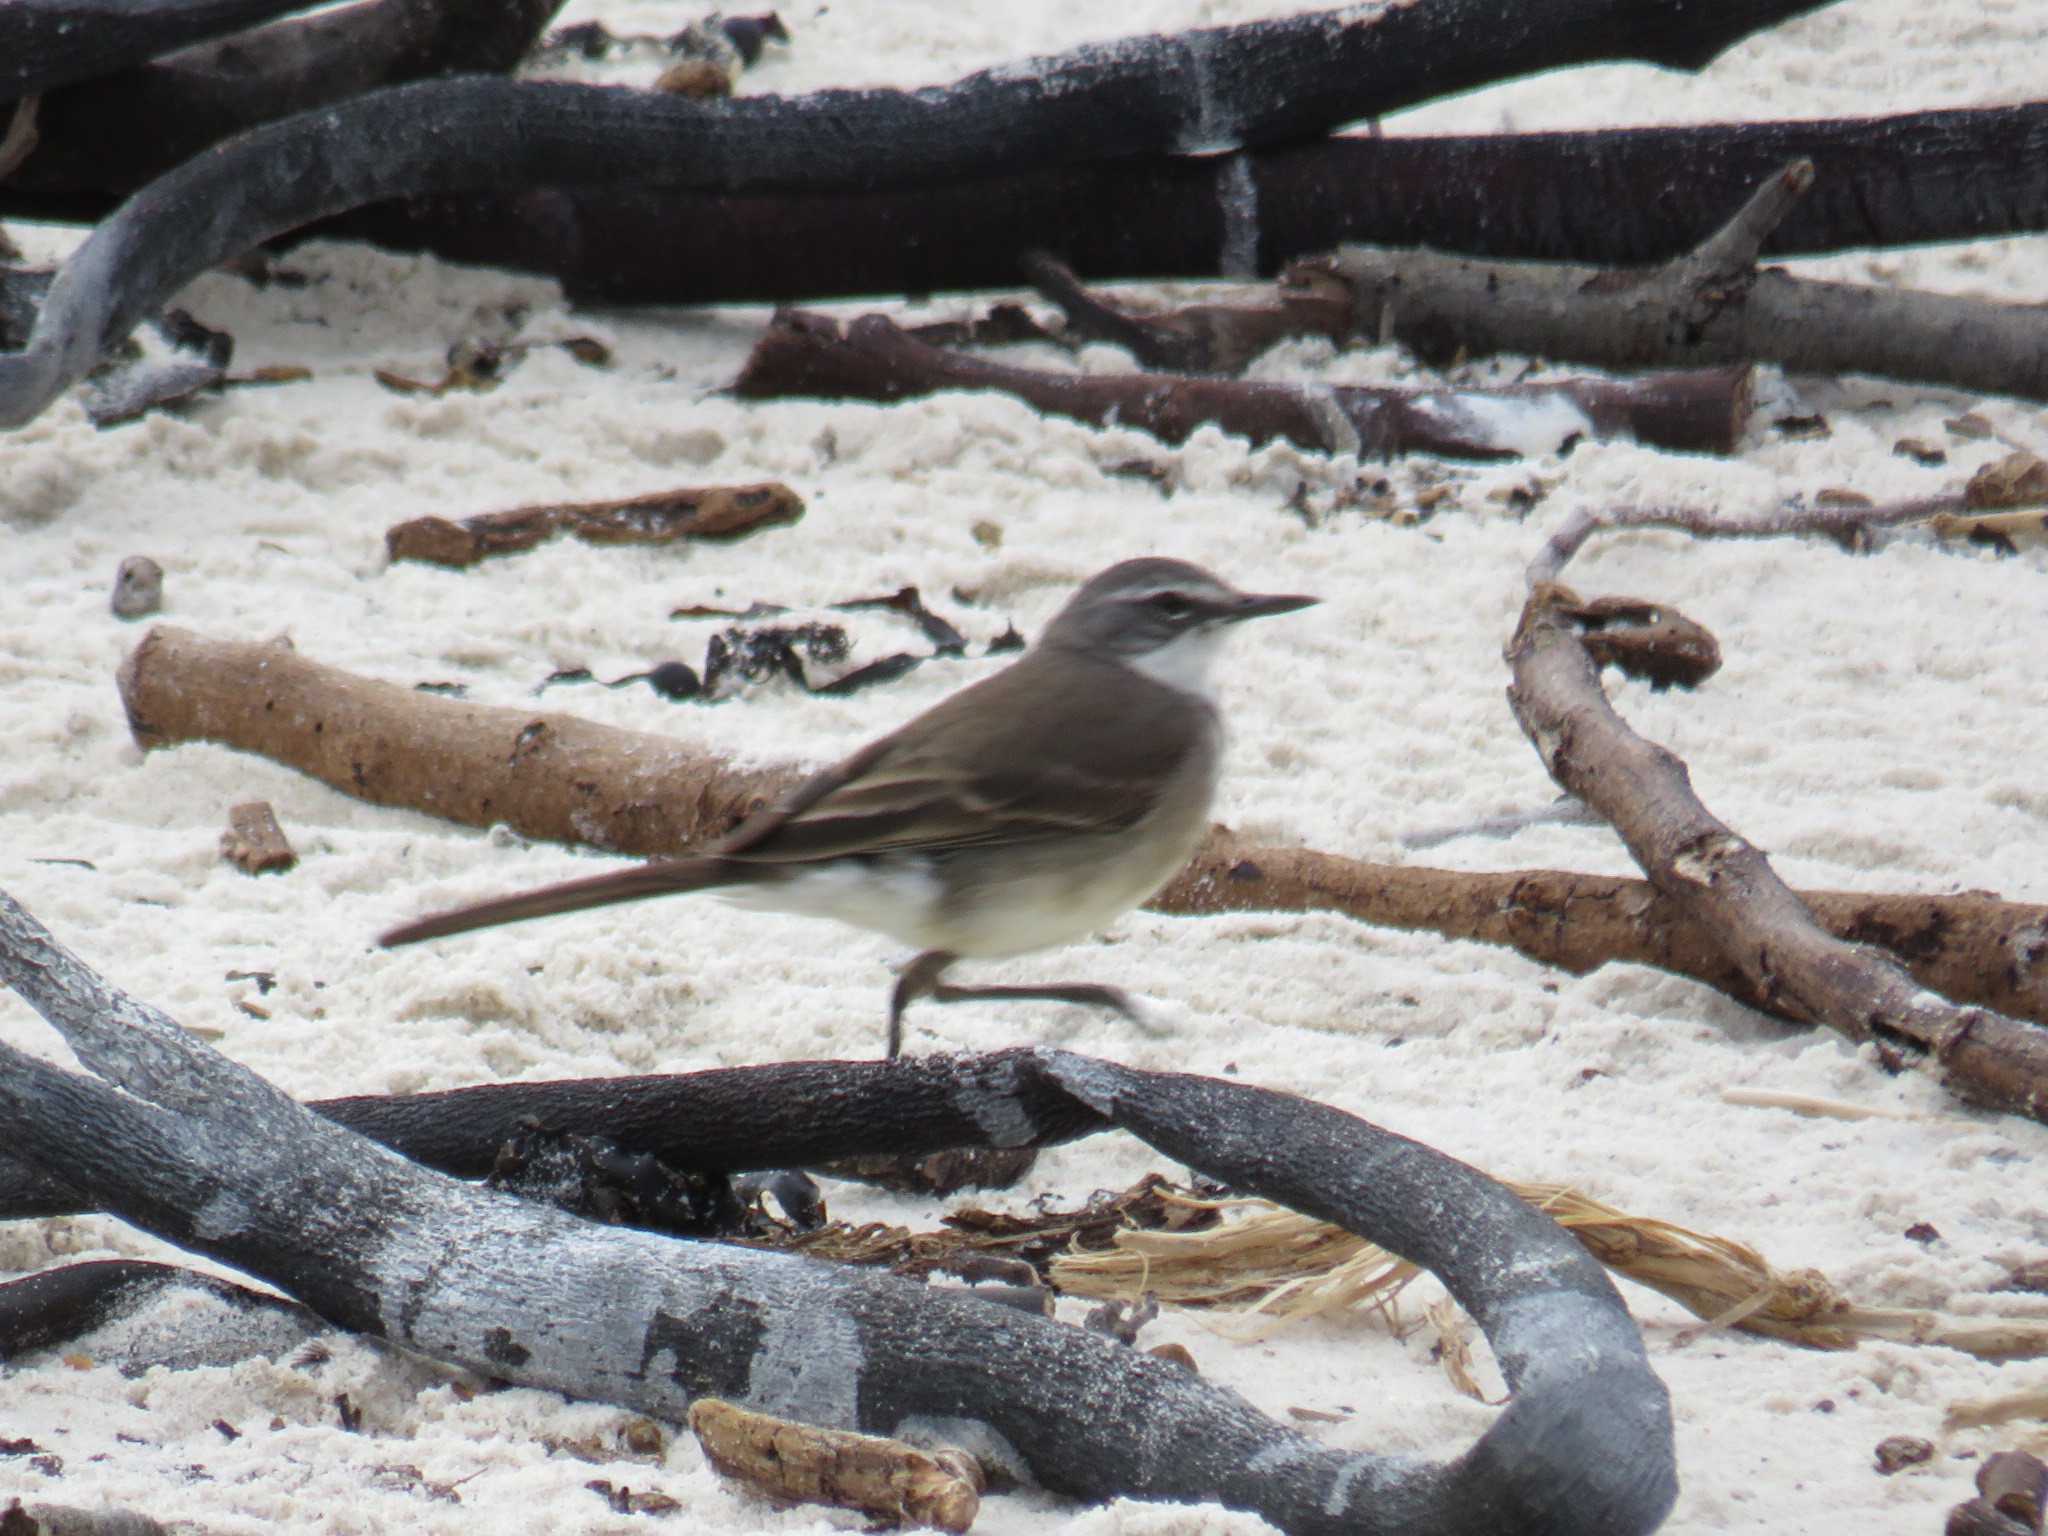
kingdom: Animalia
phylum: Chordata
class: Aves
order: Passeriformes
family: Motacillidae
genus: Motacilla
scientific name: Motacilla capensis
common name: Cape wagtail
